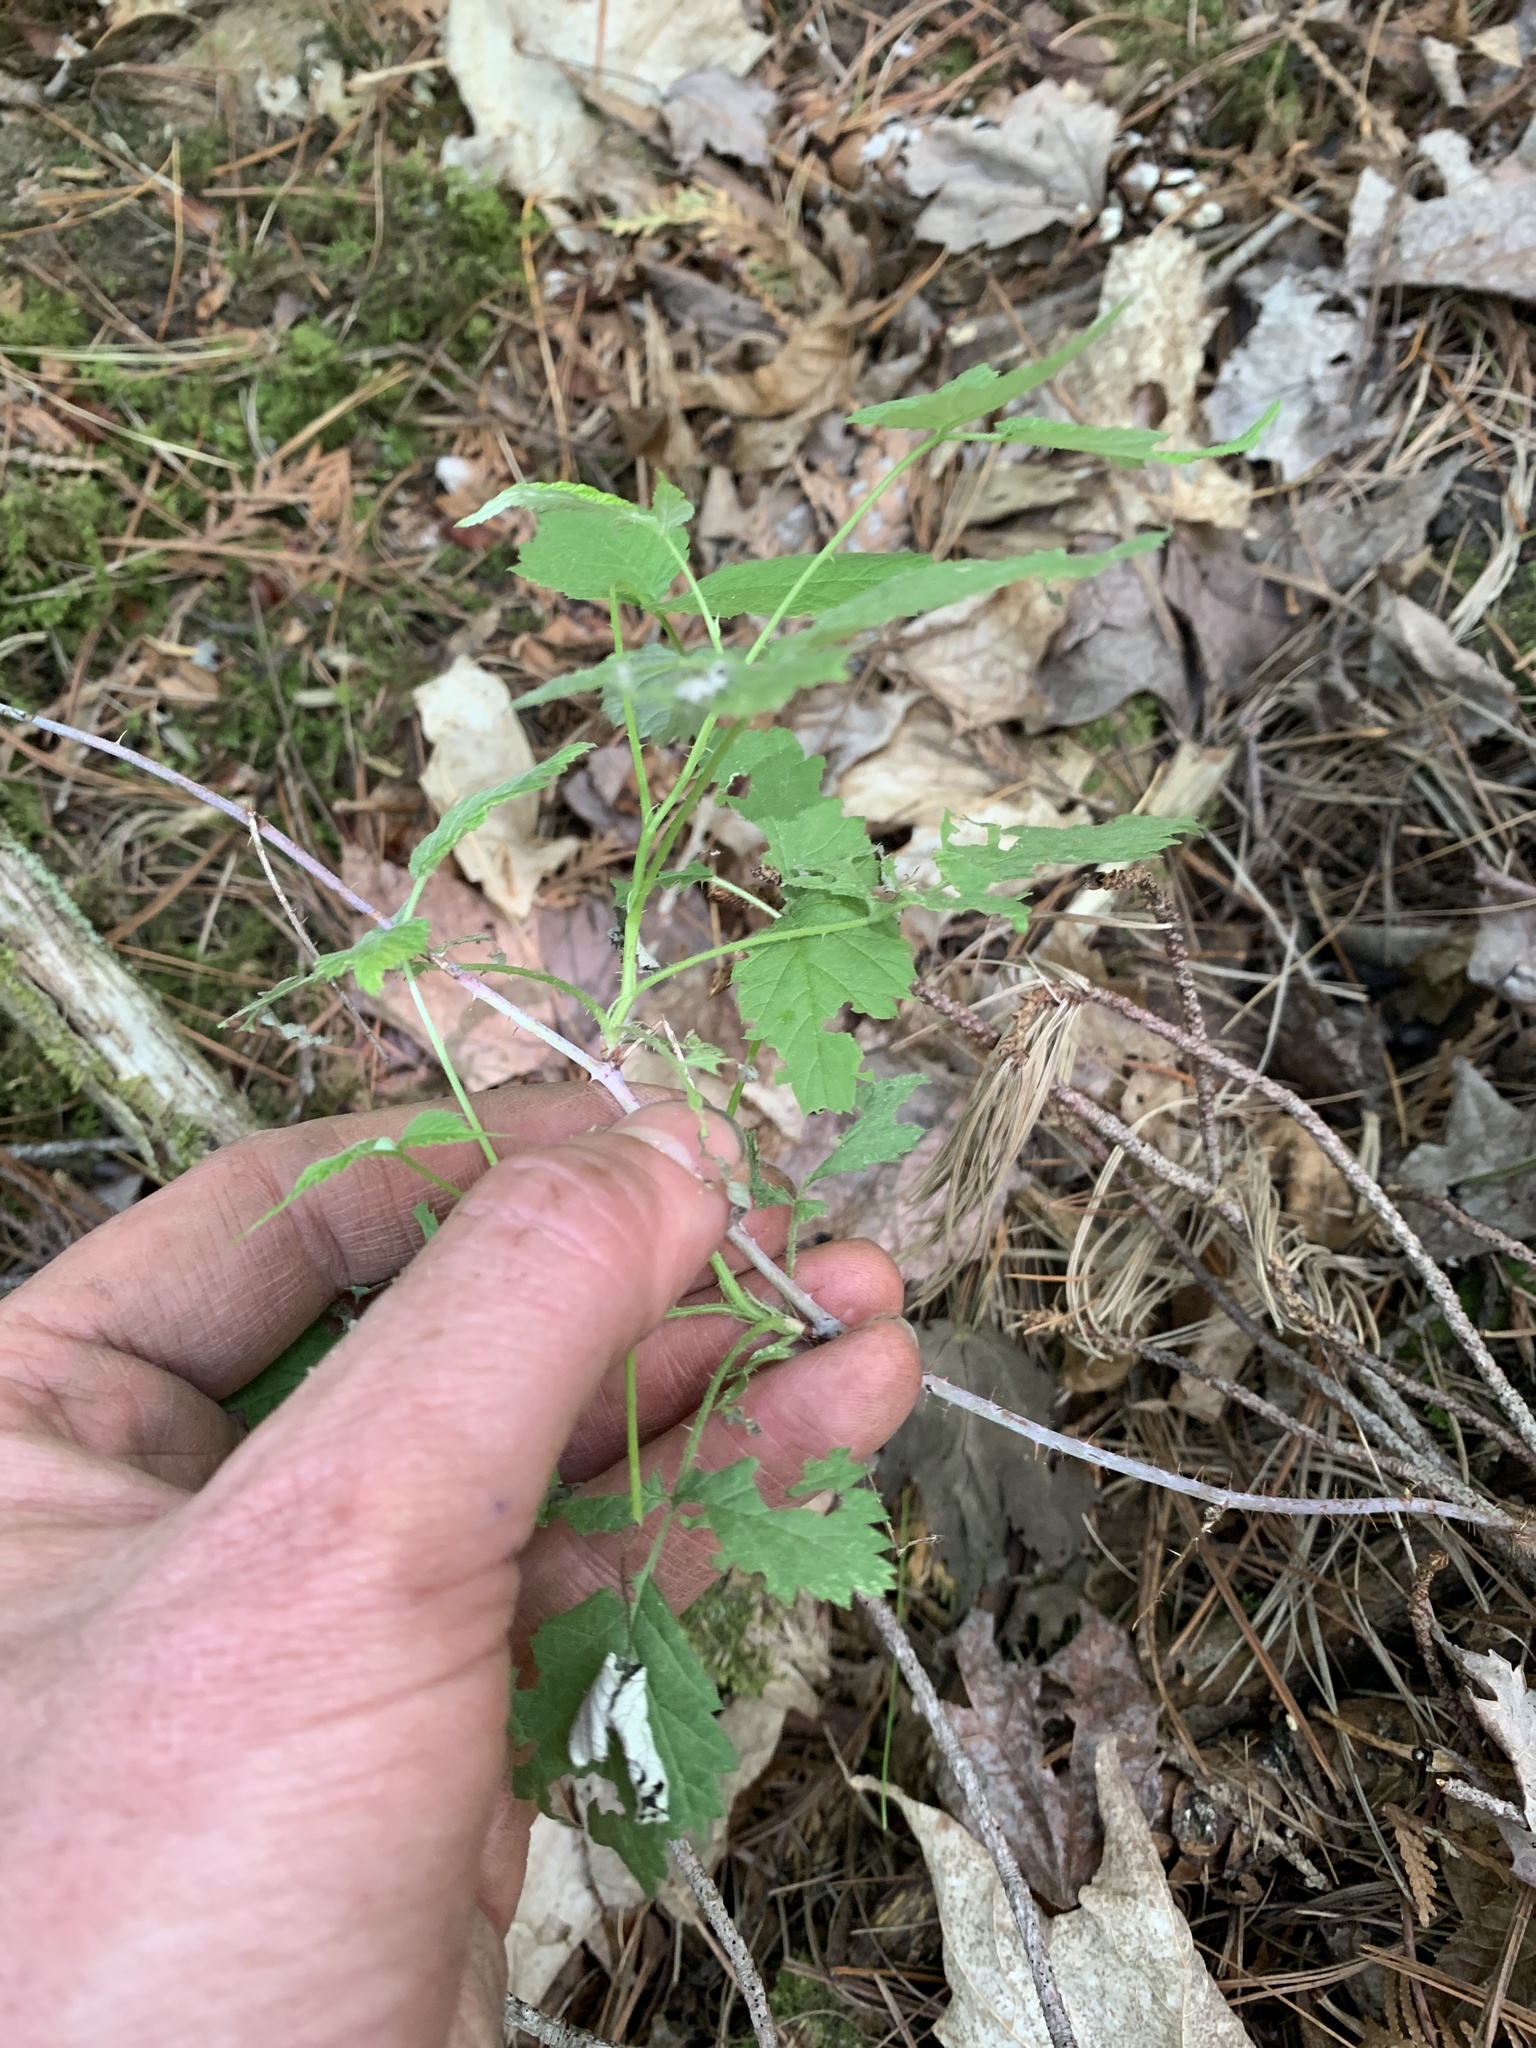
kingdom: Plantae
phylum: Tracheophyta
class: Magnoliopsida
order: Rosales
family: Rosaceae
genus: Rubus
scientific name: Rubus occidentalis
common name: Black raspberry
